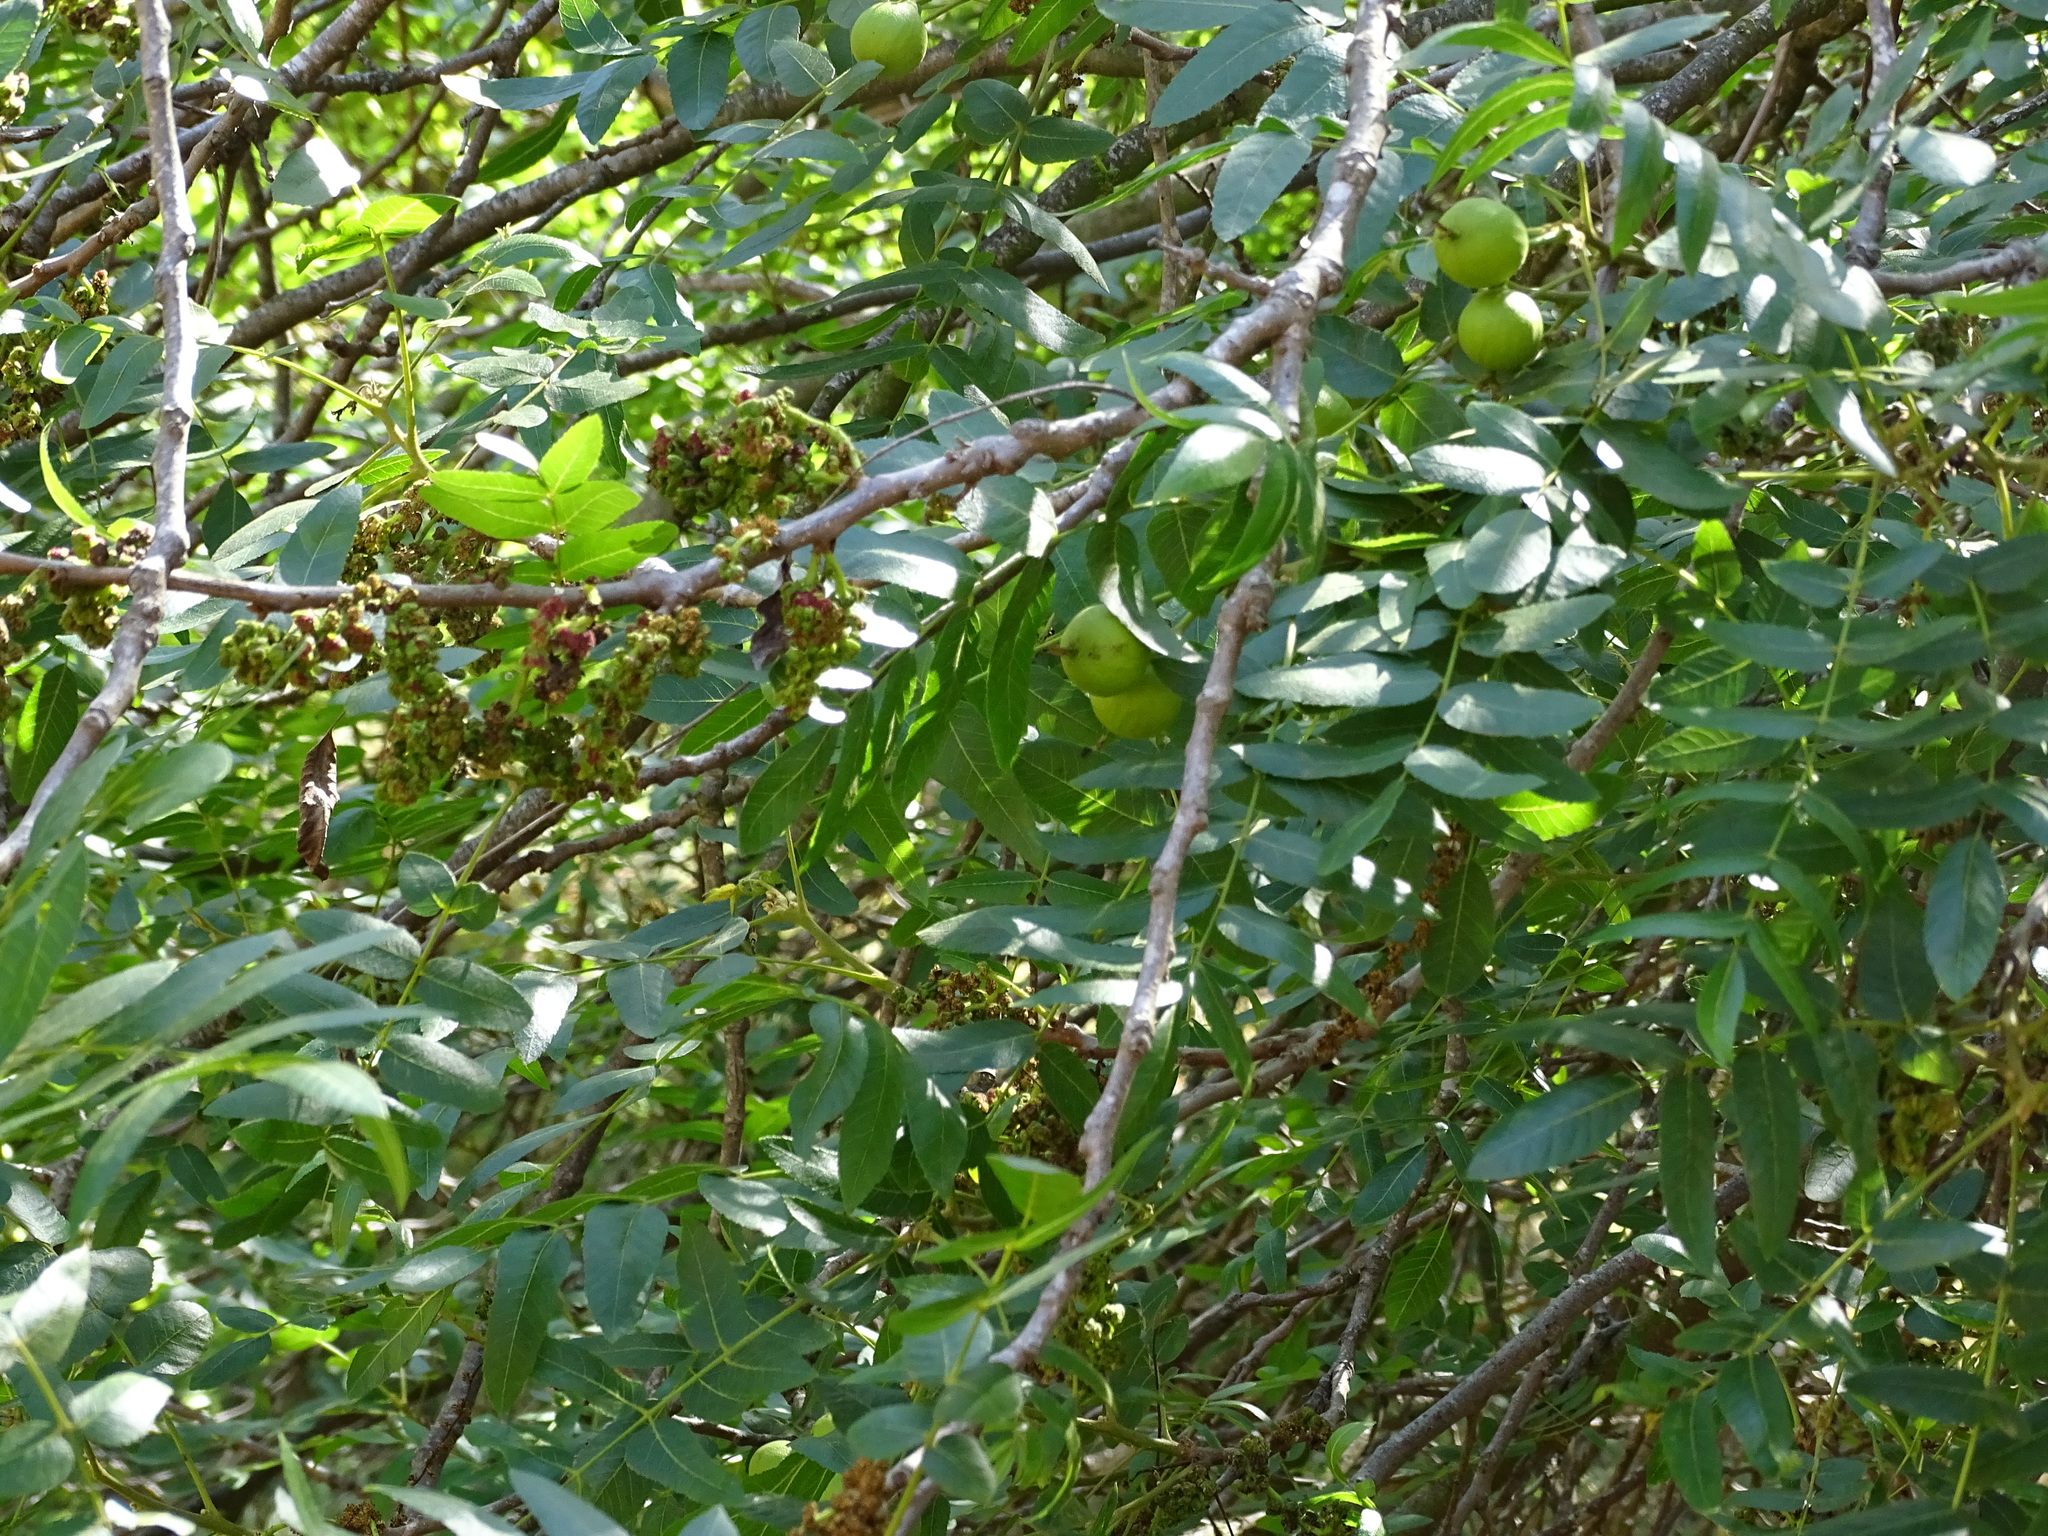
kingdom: Plantae
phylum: Tracheophyta
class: Magnoliopsida
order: Fagales
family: Juglandaceae
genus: Juglans
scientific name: Juglans californica
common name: Southern california black walnut
